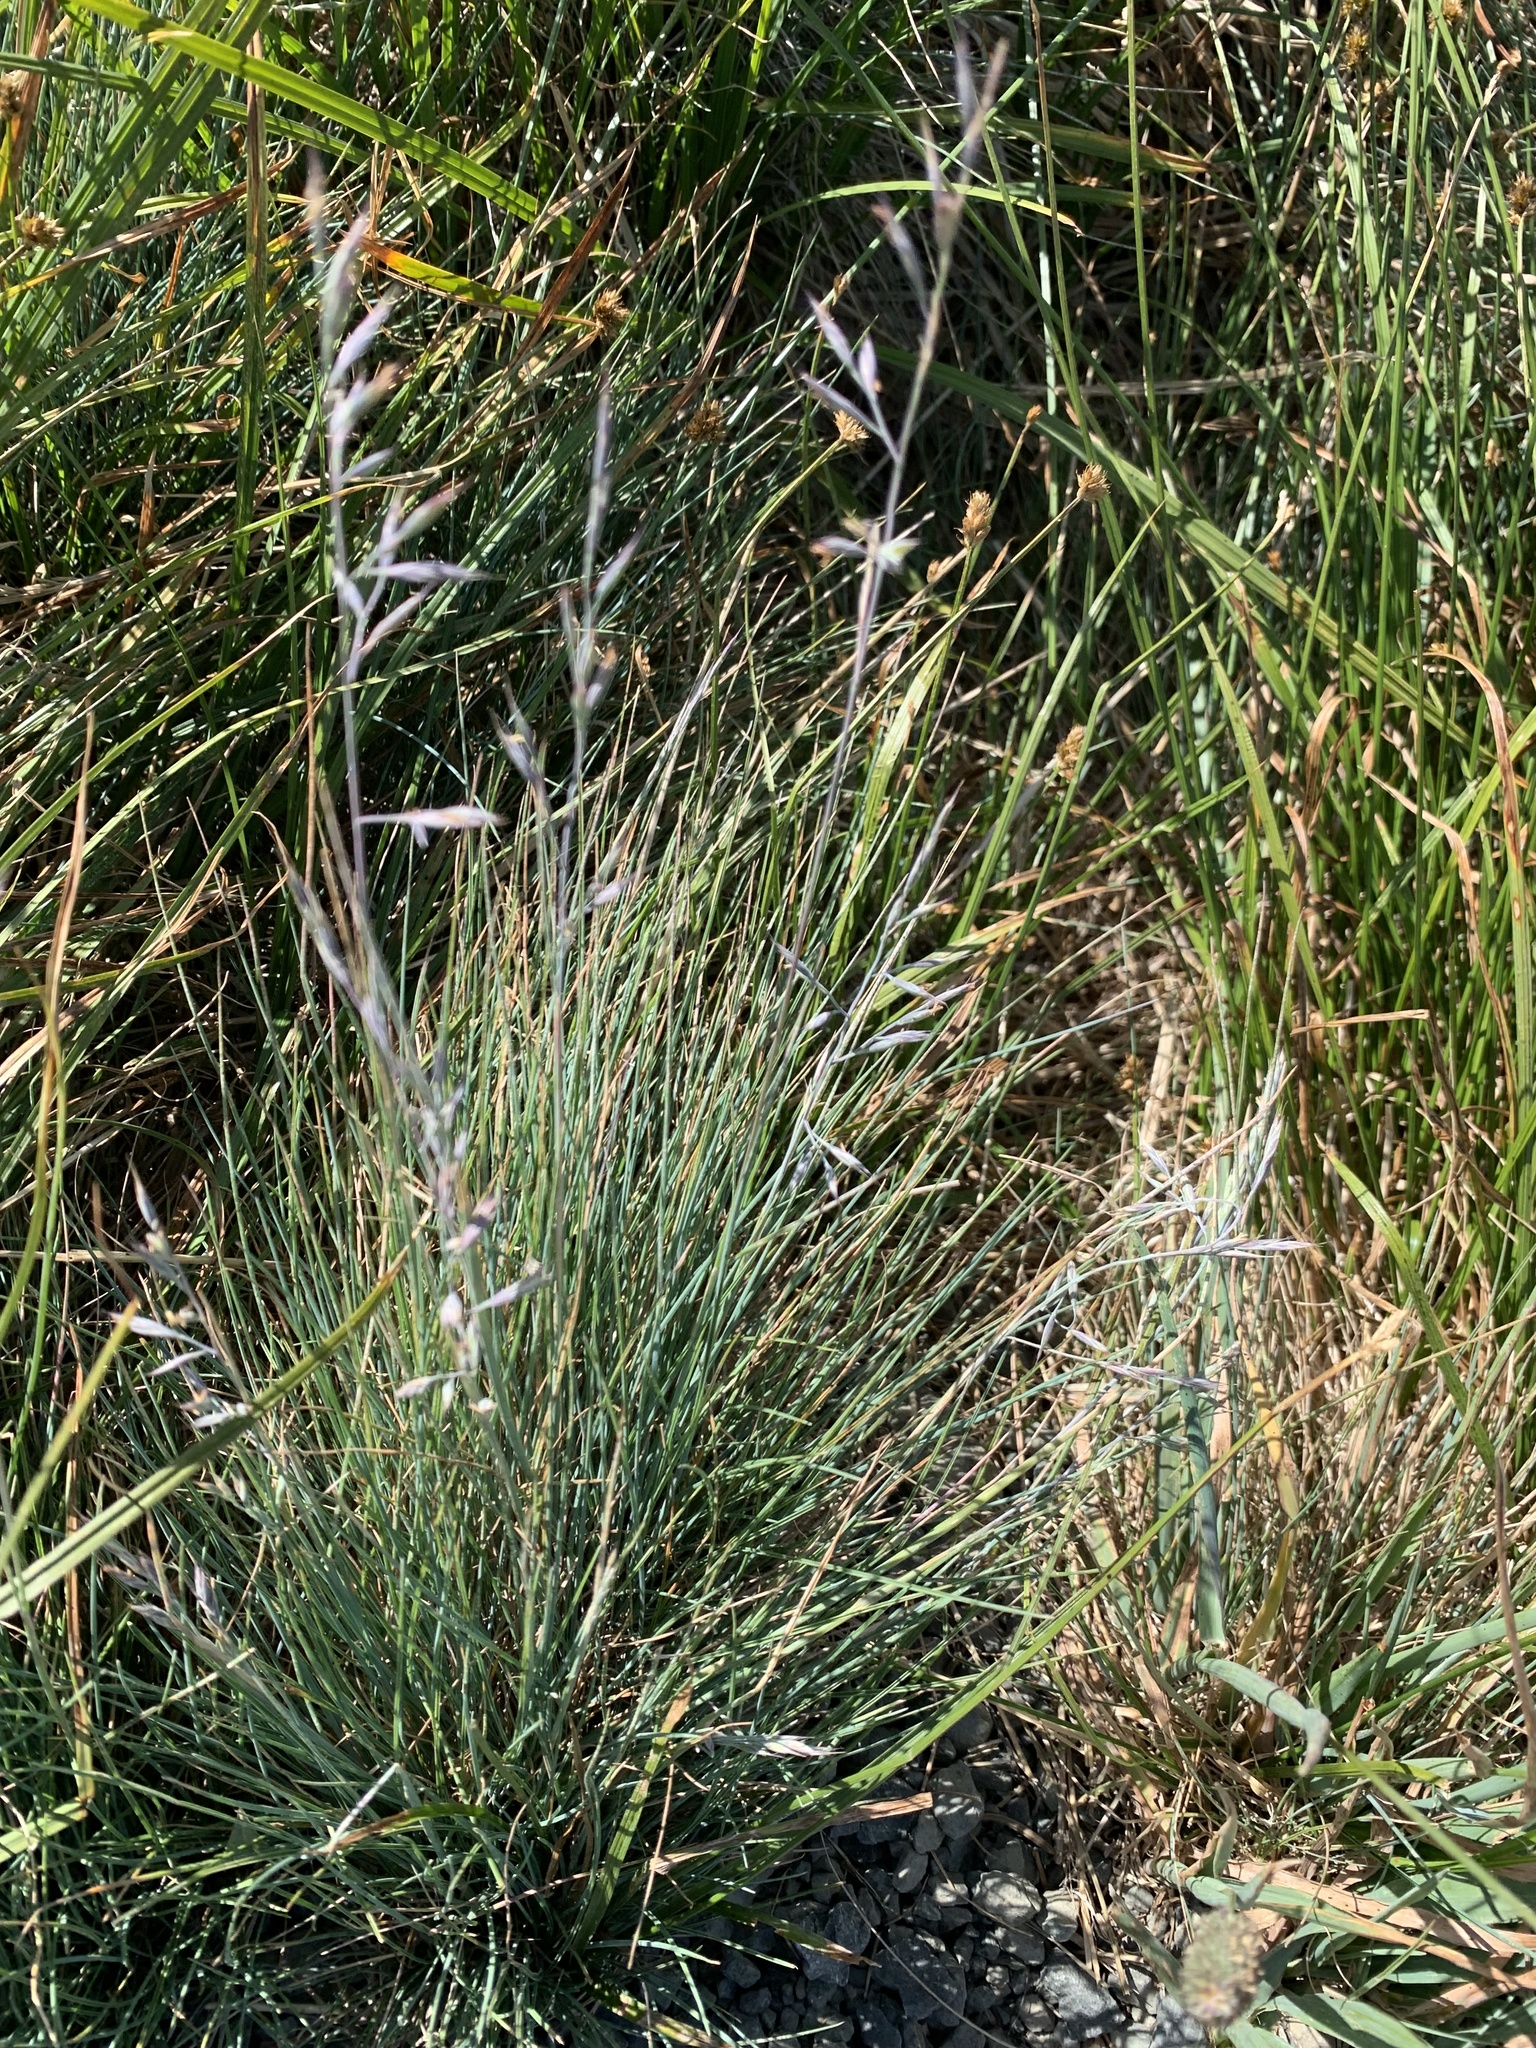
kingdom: Plantae
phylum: Tracheophyta
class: Liliopsida
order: Poales
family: Poaceae
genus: Festuca
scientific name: Festuca idahoensis
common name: Idaho fescue
